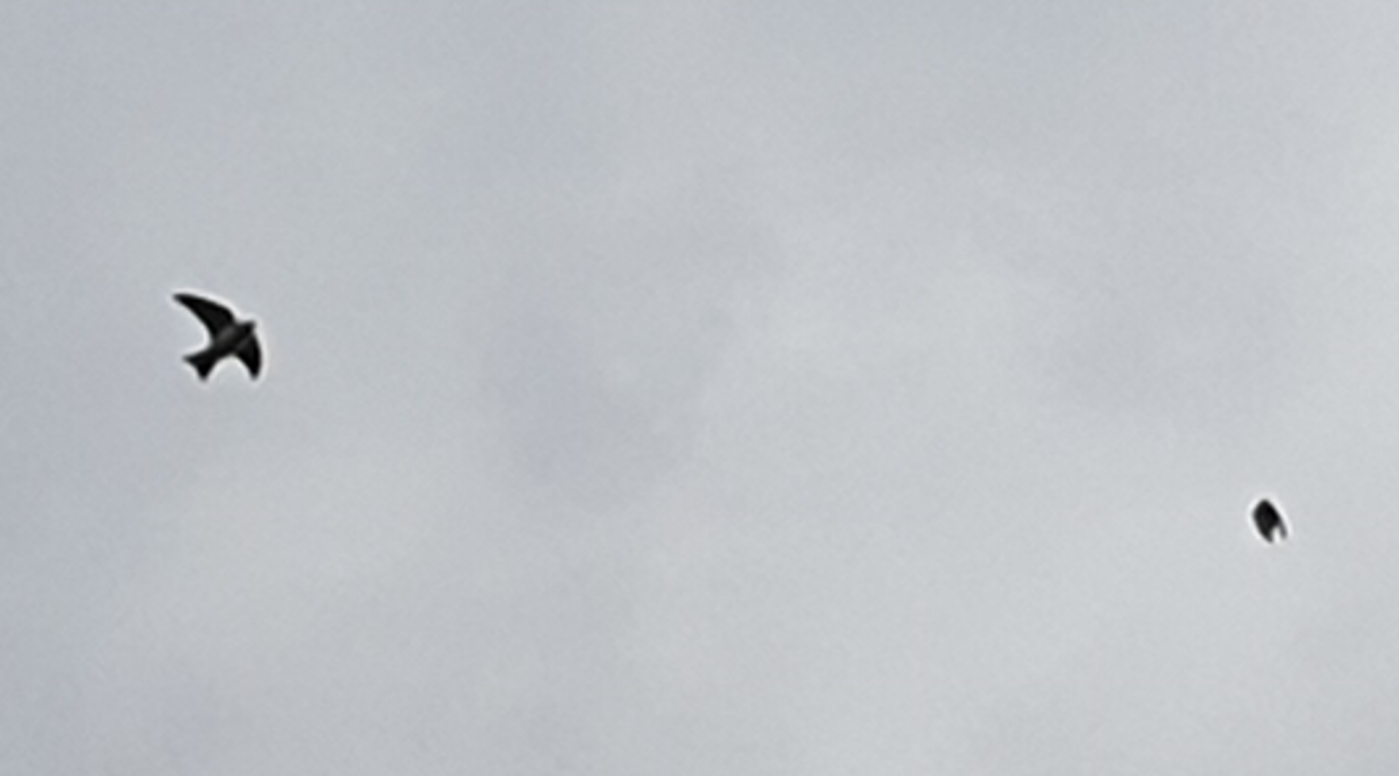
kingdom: Animalia
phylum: Chordata
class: Aves
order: Passeriformes
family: Hirundinidae
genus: Delichon
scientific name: Delichon urbicum
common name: Common house martin
